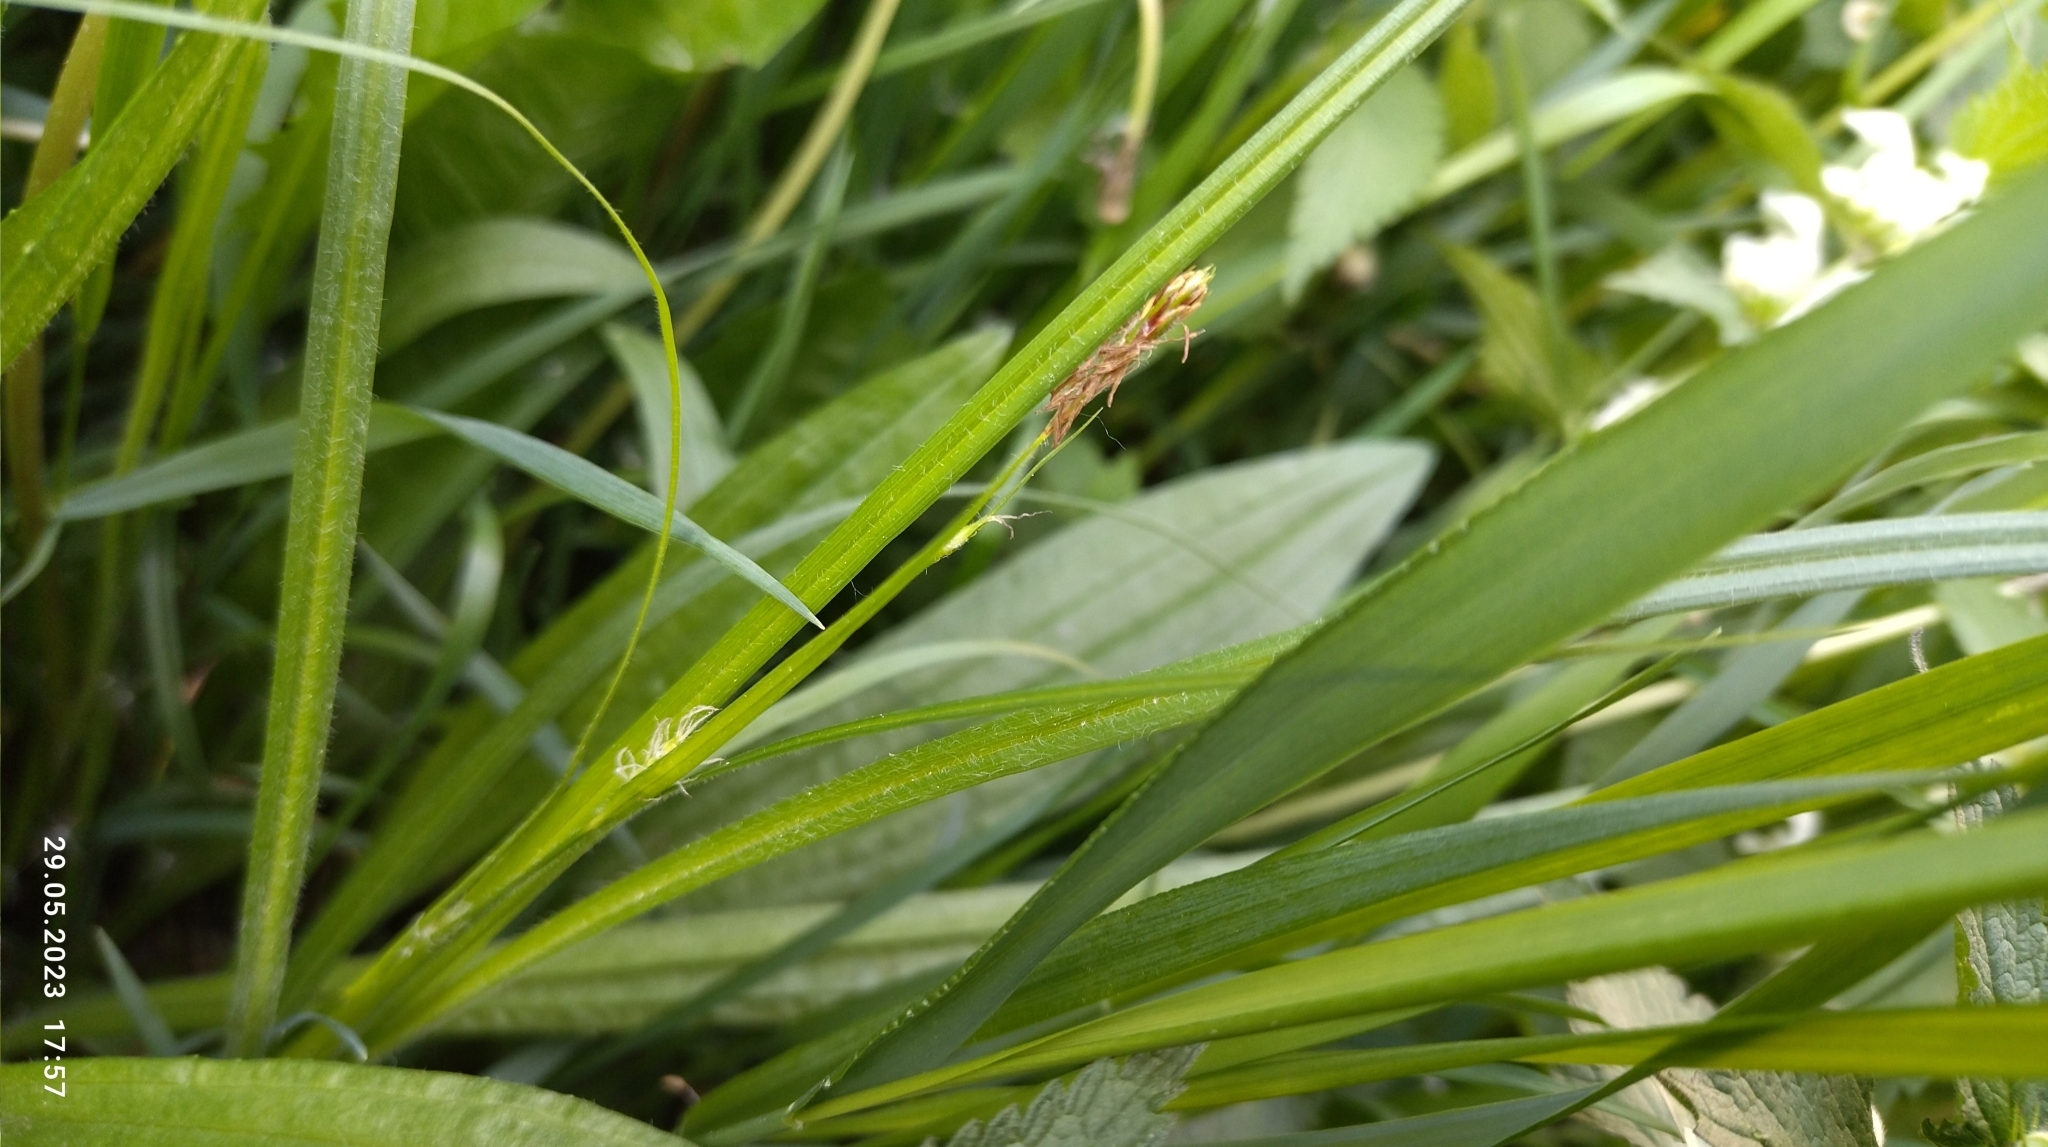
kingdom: Plantae
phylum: Tracheophyta
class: Liliopsida
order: Poales
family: Cyperaceae
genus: Carex
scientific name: Carex hirta
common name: Hairy sedge
